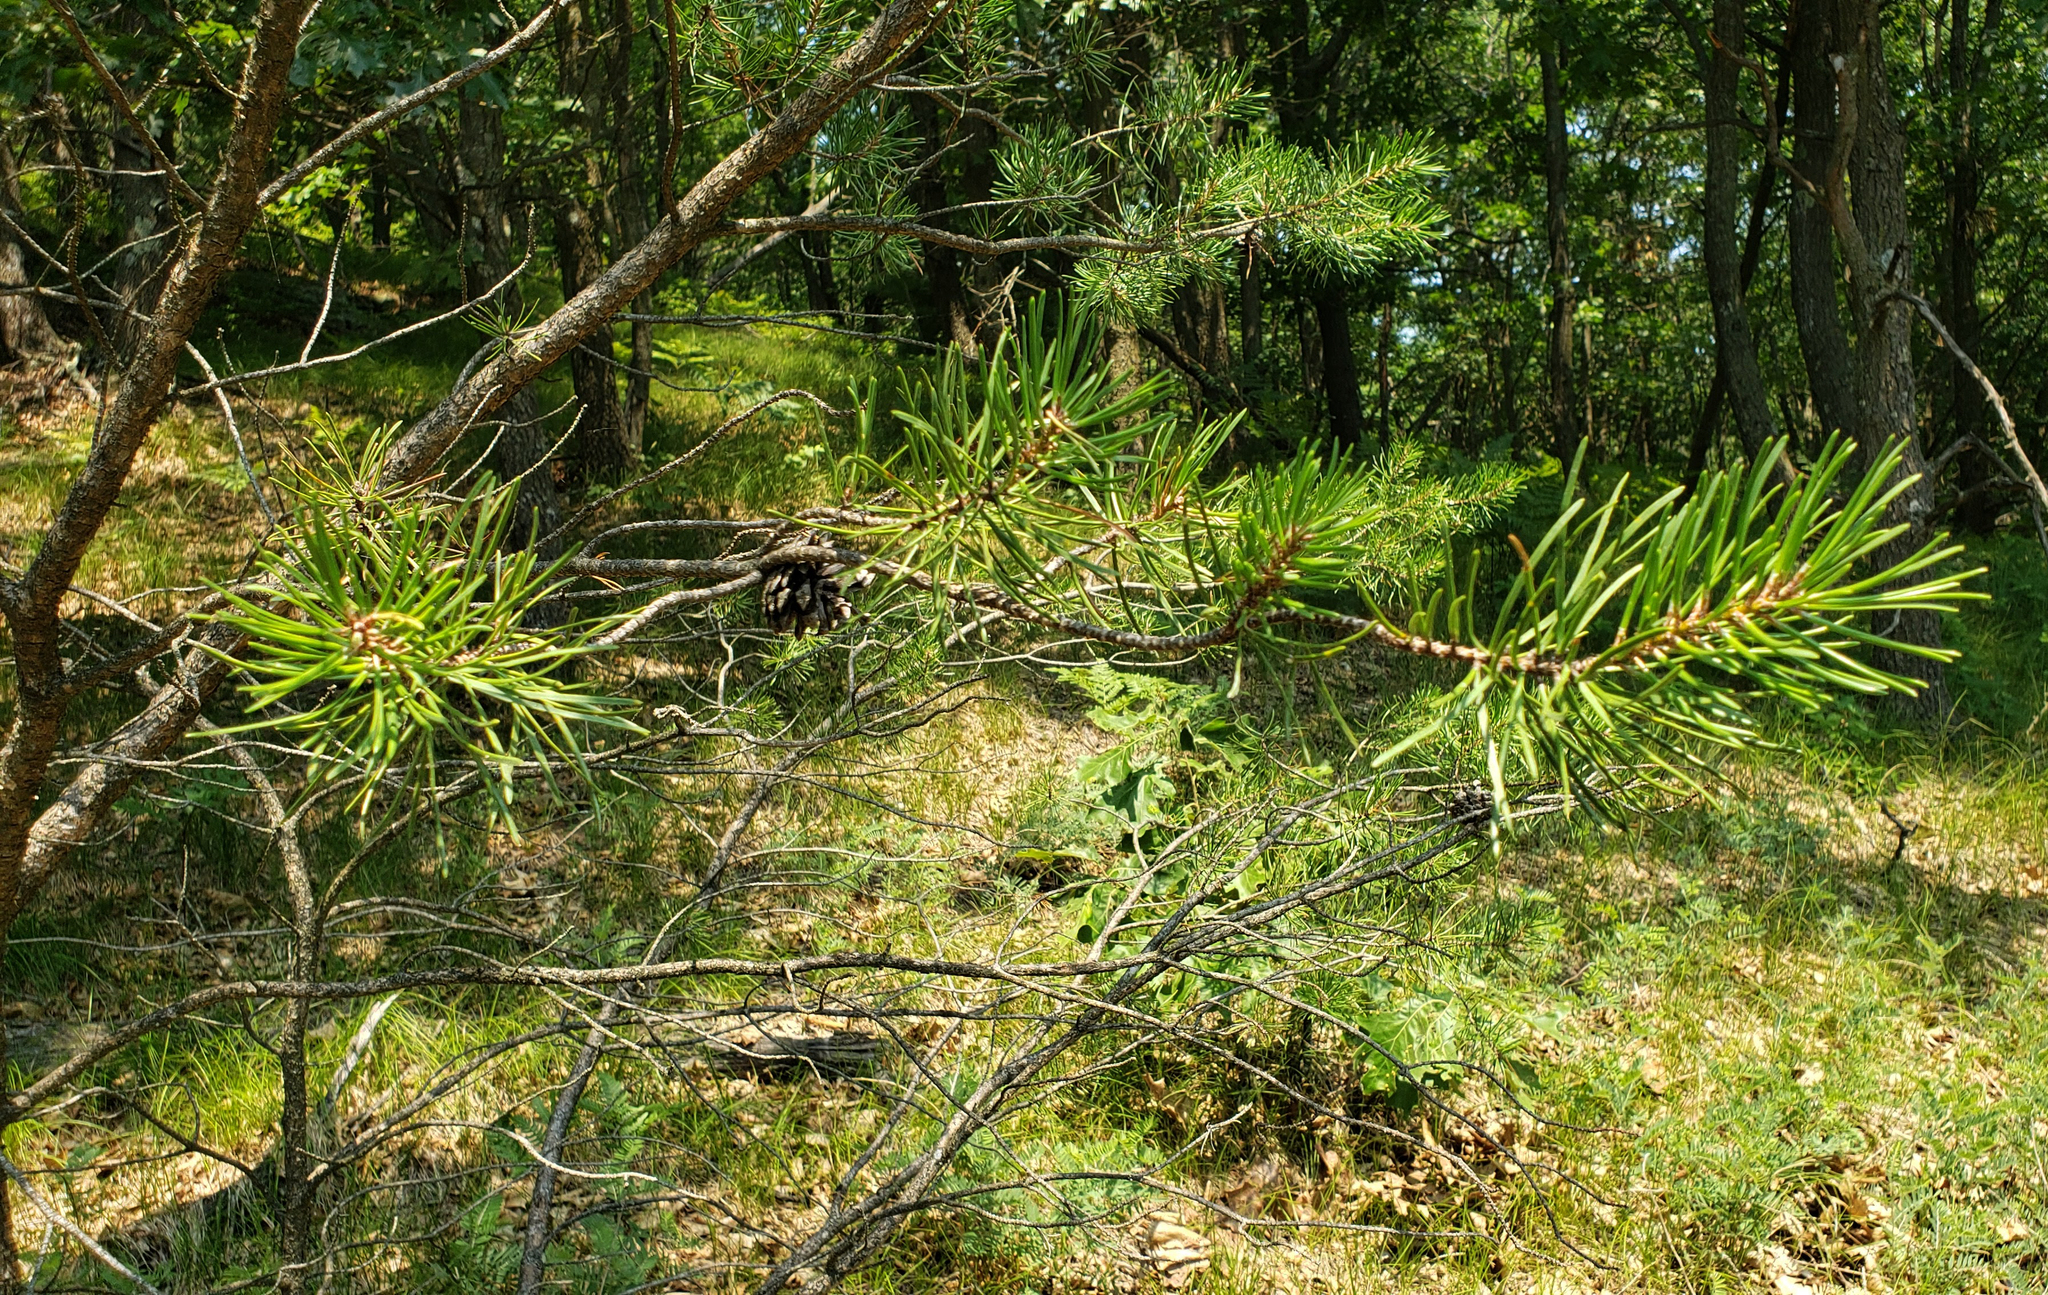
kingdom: Plantae
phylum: Tracheophyta
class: Pinopsida
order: Pinales
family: Pinaceae
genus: Pinus
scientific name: Pinus banksiana
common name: Jack pine
